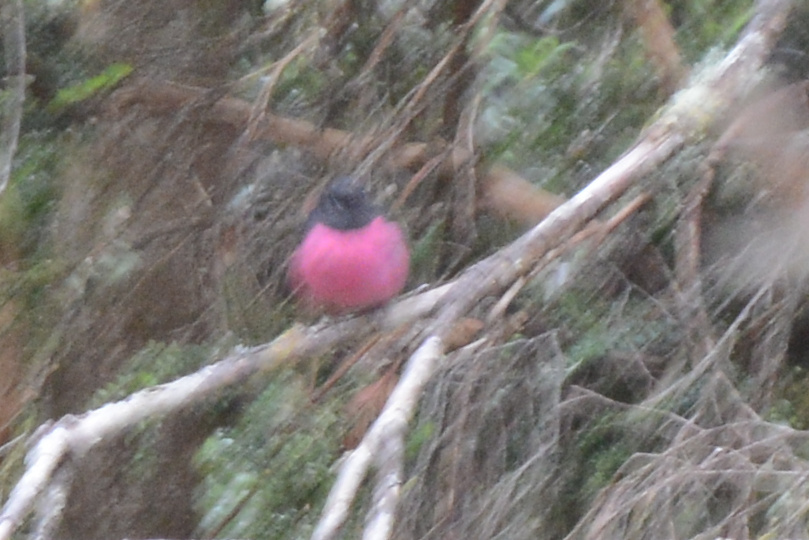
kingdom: Animalia
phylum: Chordata
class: Aves
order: Passeriformes
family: Petroicidae
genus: Petroica
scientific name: Petroica rodinogaster
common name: Pink robin
